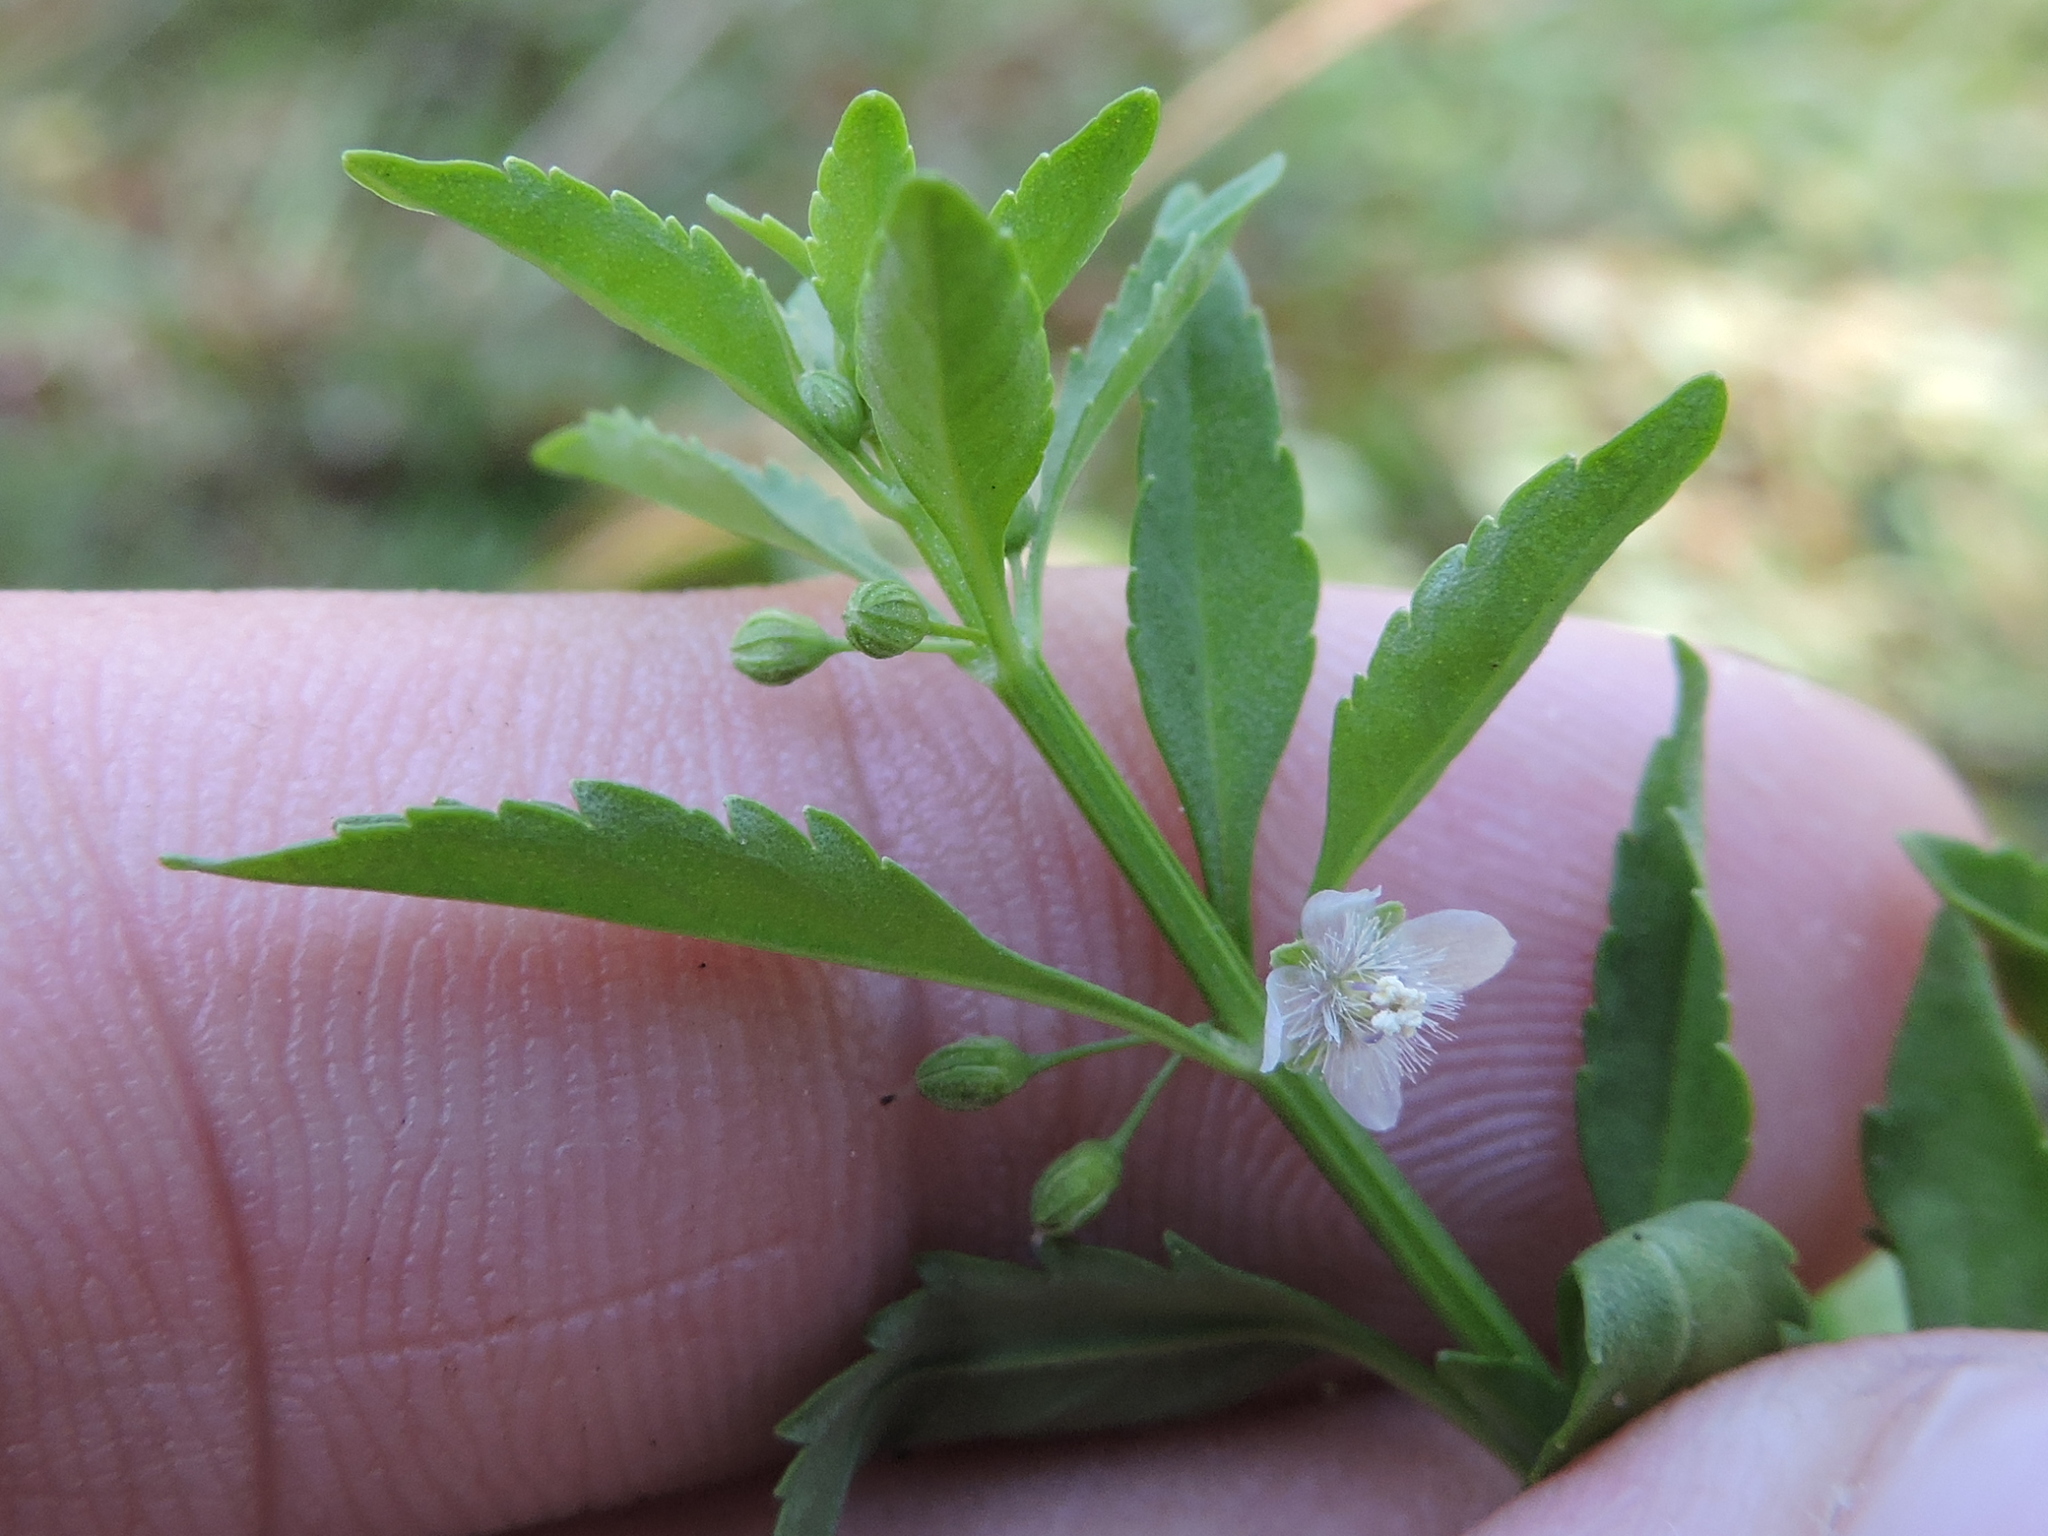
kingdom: Plantae
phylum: Tracheophyta
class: Magnoliopsida
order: Lamiales
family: Plantaginaceae
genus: Scoparia
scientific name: Scoparia dulcis
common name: Scoparia-weed
